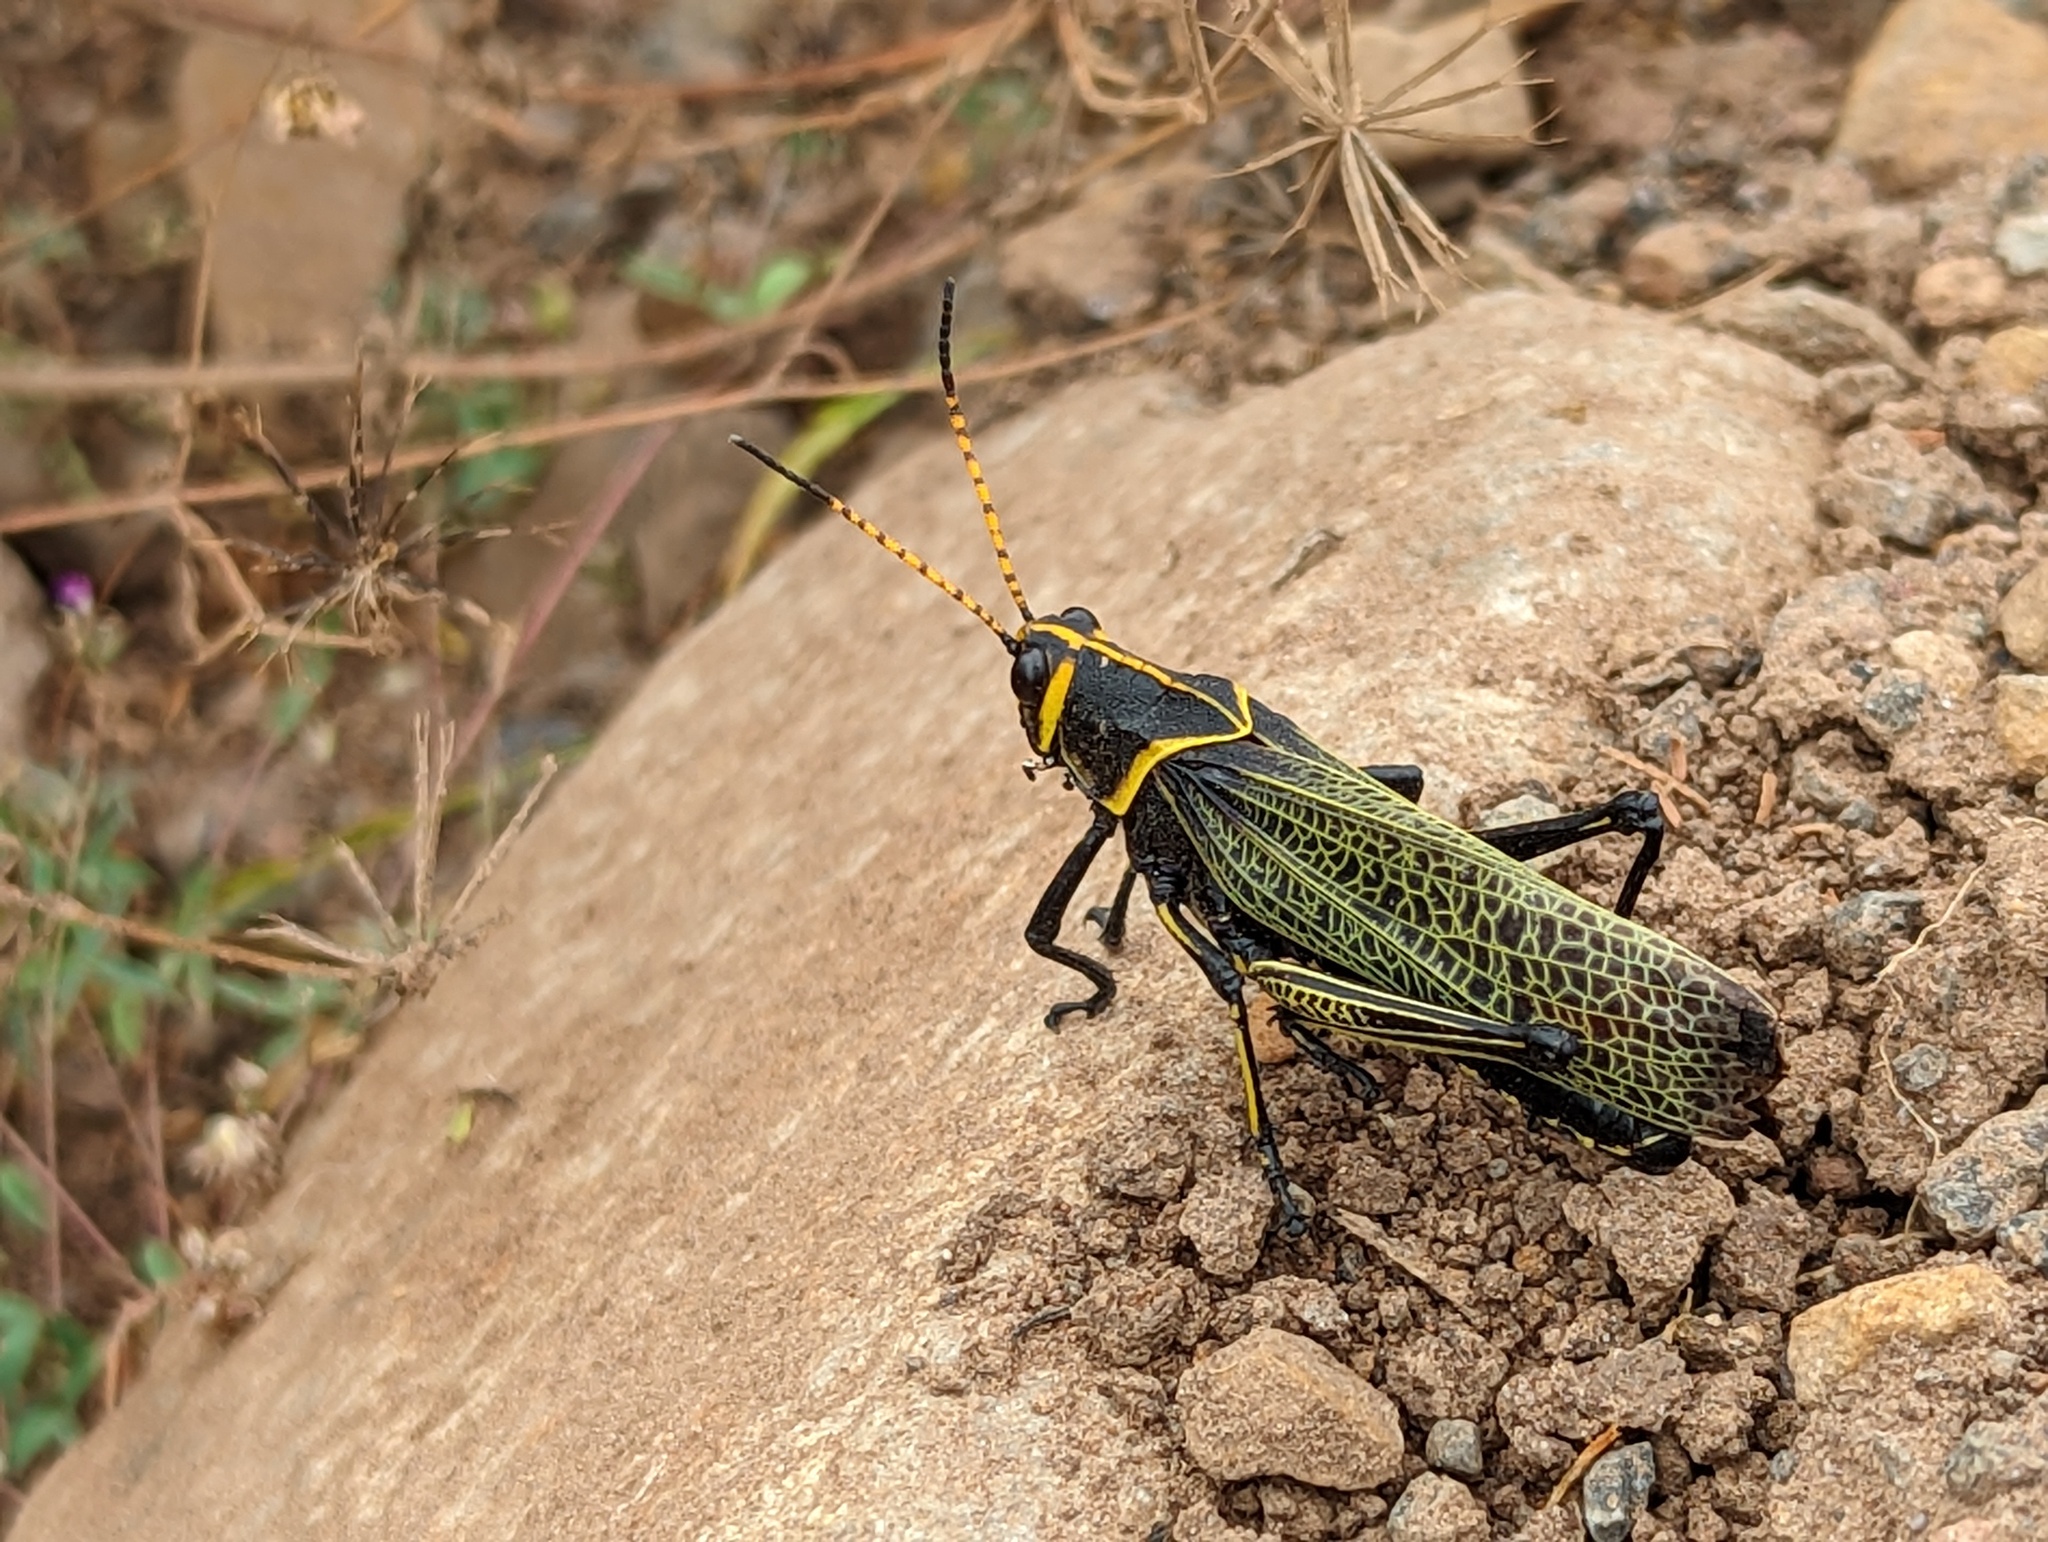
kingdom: Animalia
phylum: Arthropoda
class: Insecta
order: Orthoptera
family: Romaleidae
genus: Romalea
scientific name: Romalea
